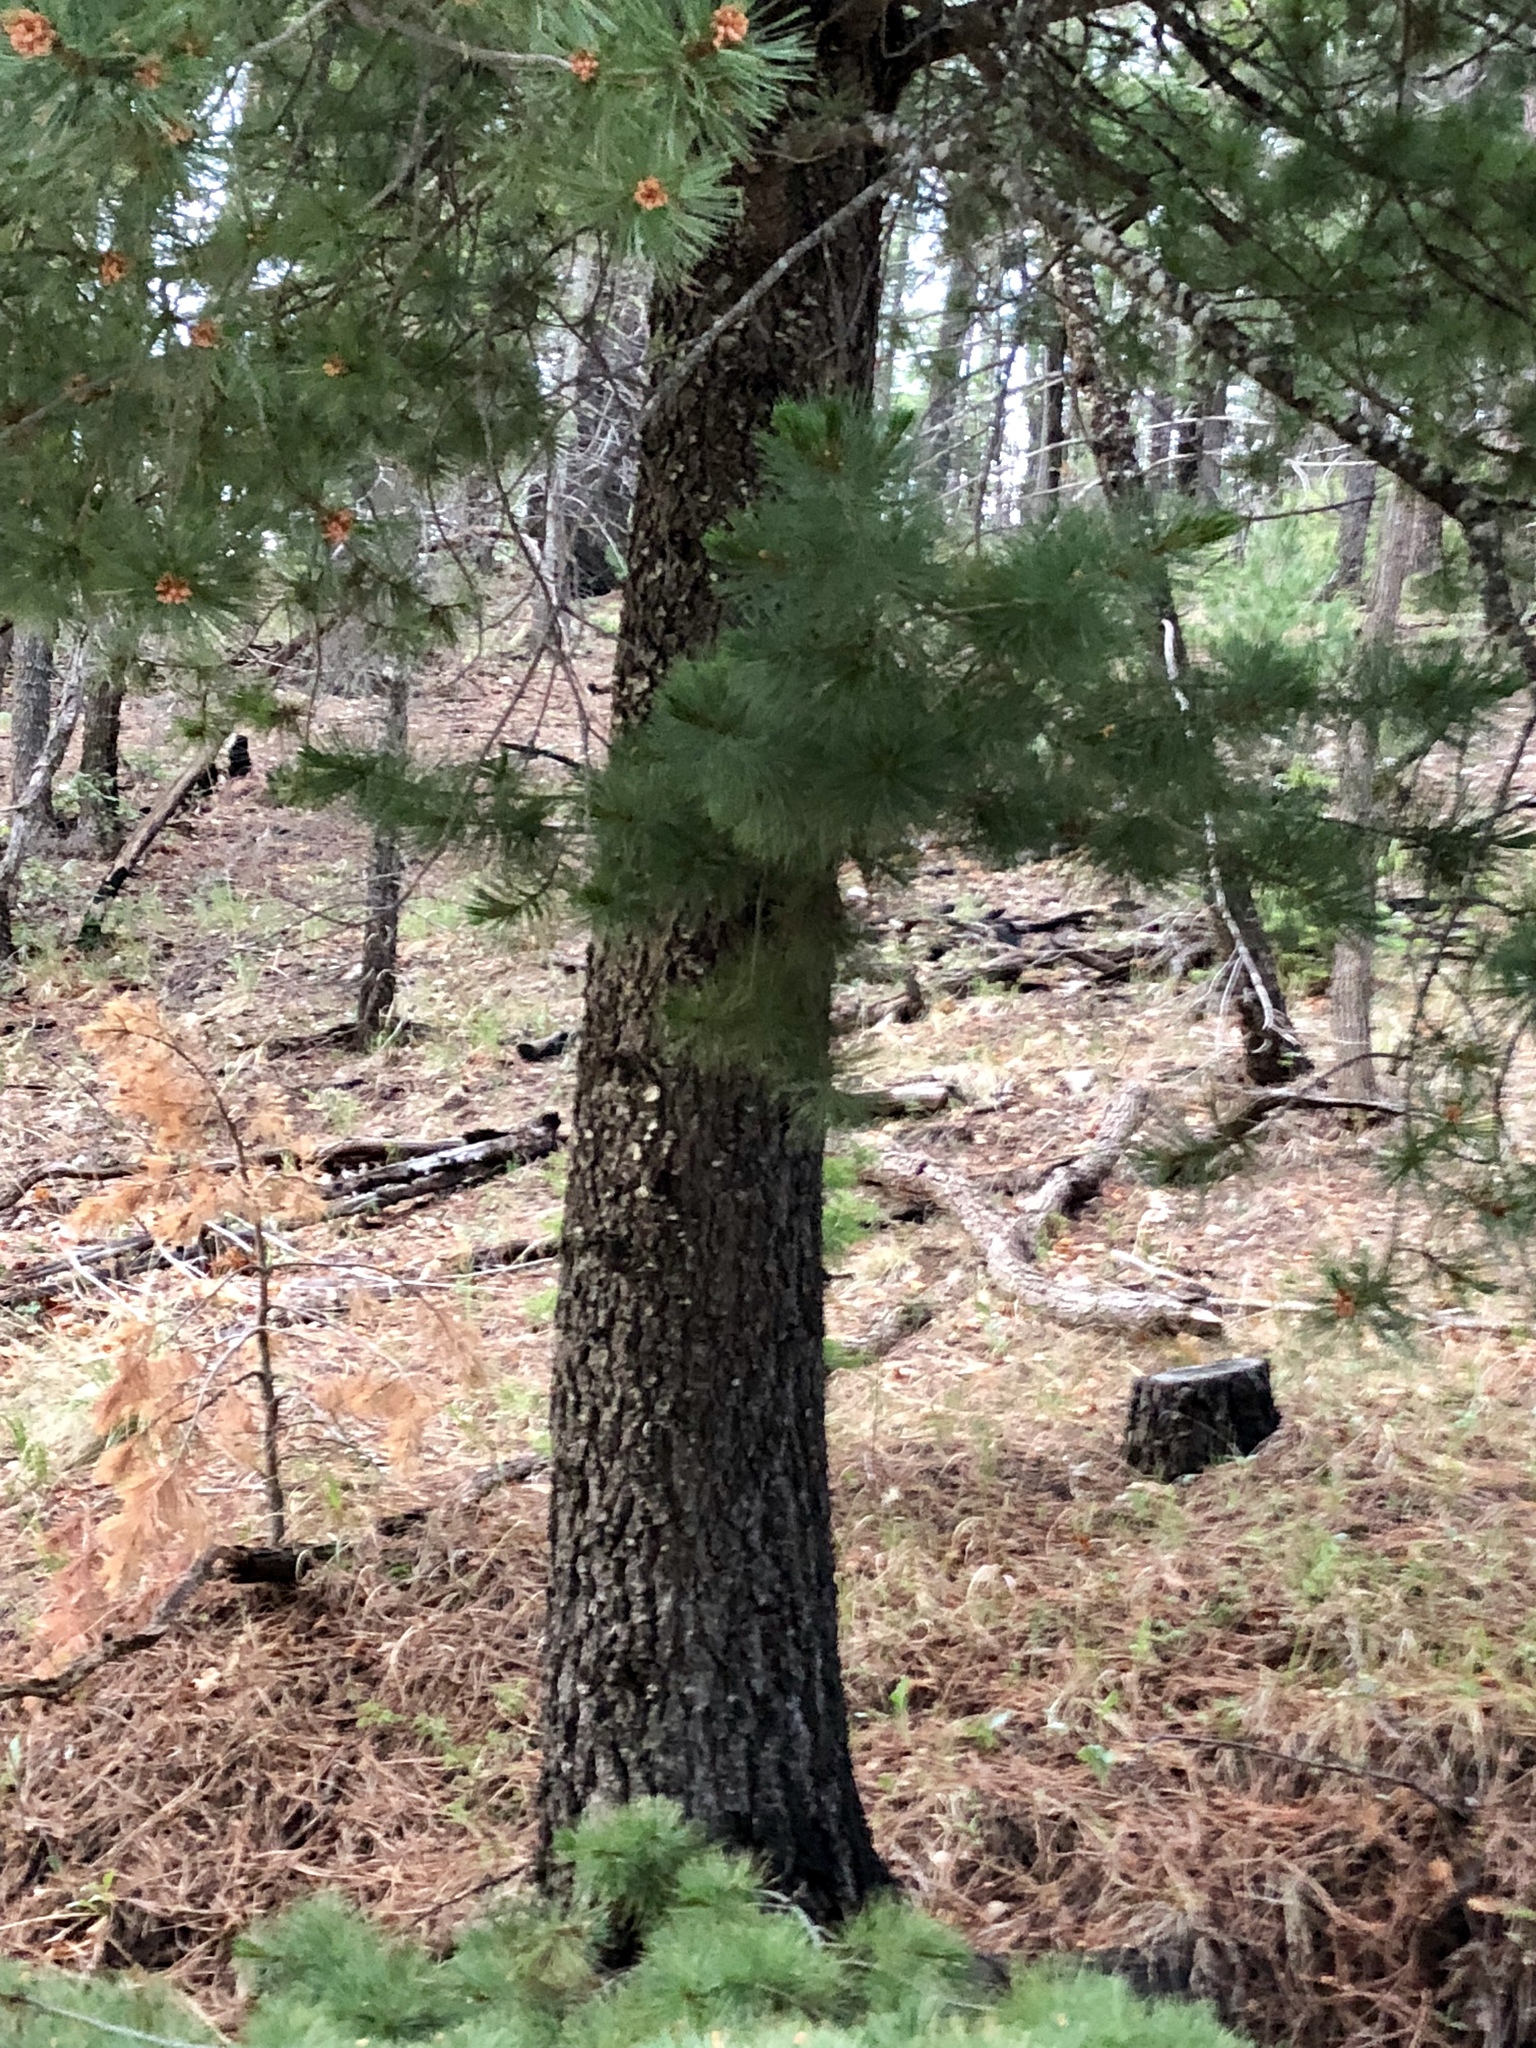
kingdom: Plantae
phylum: Tracheophyta
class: Pinopsida
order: Pinales
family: Pinaceae
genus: Pinus
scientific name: Pinus strobiformis
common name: Southwestern white pine
